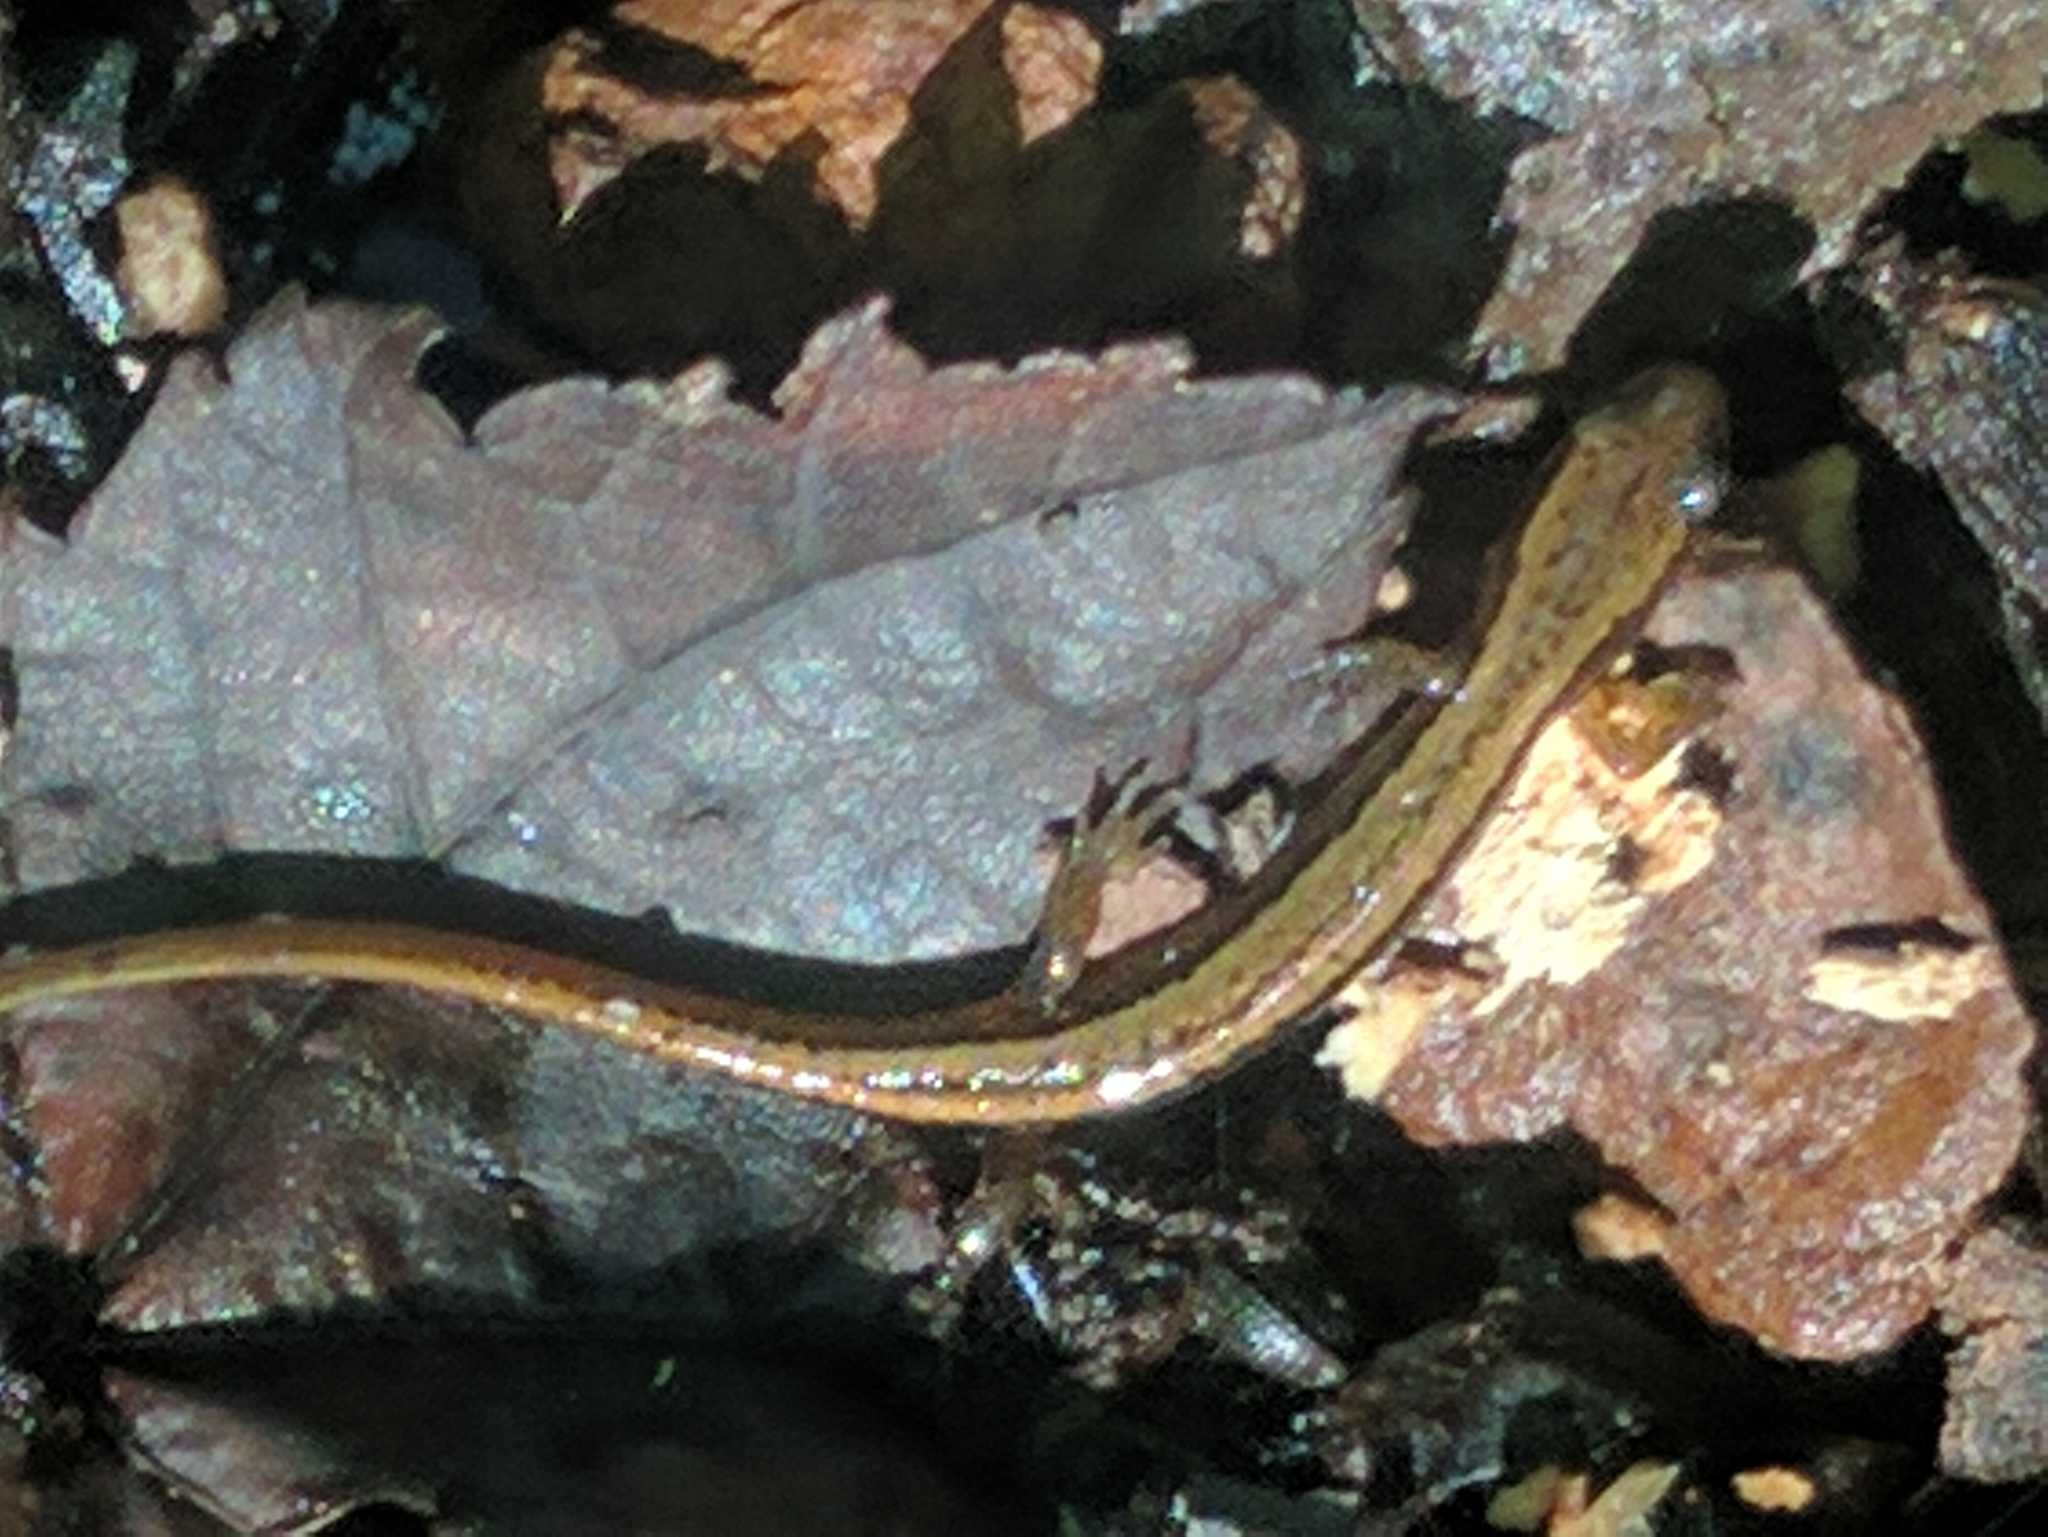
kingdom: Animalia
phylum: Chordata
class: Amphibia
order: Caudata
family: Plethodontidae
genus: Eurycea
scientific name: Eurycea bislineata
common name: Northern two-lined salamander
